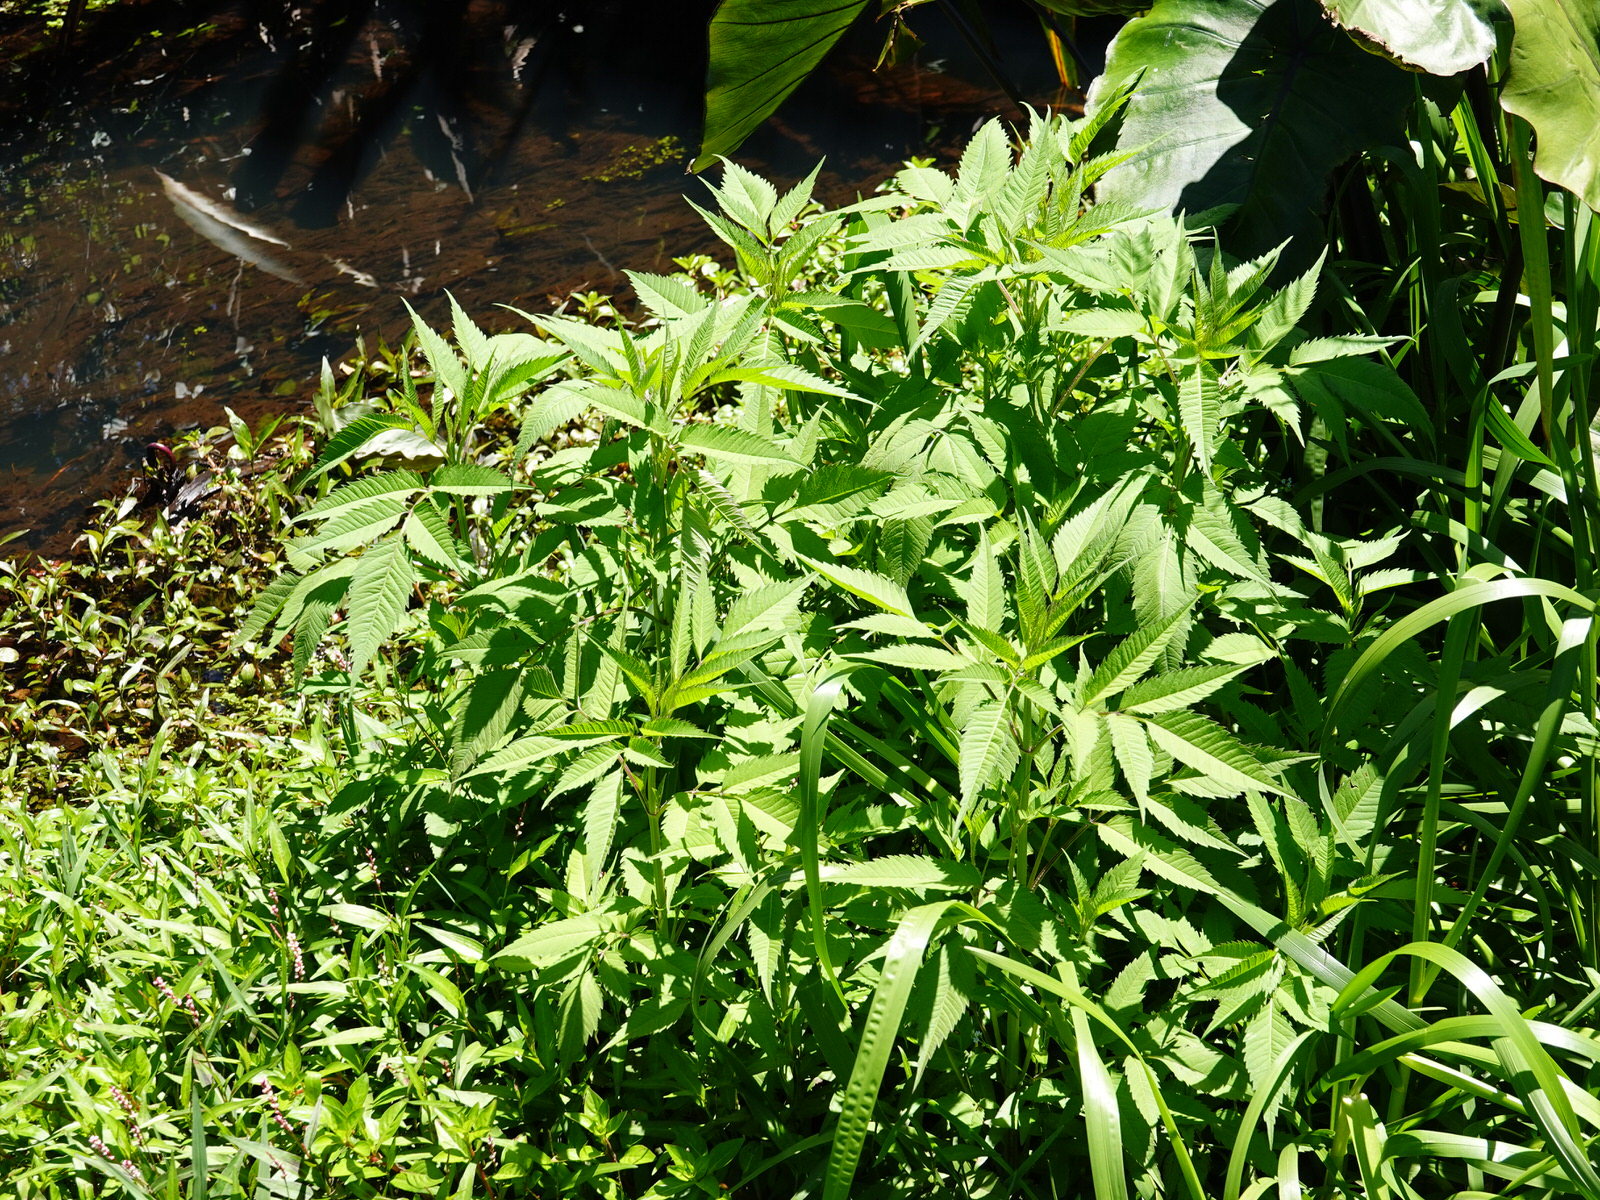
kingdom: Plantae
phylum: Tracheophyta
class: Magnoliopsida
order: Asterales
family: Asteraceae
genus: Bidens
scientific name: Bidens frondosa
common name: Beggarticks
